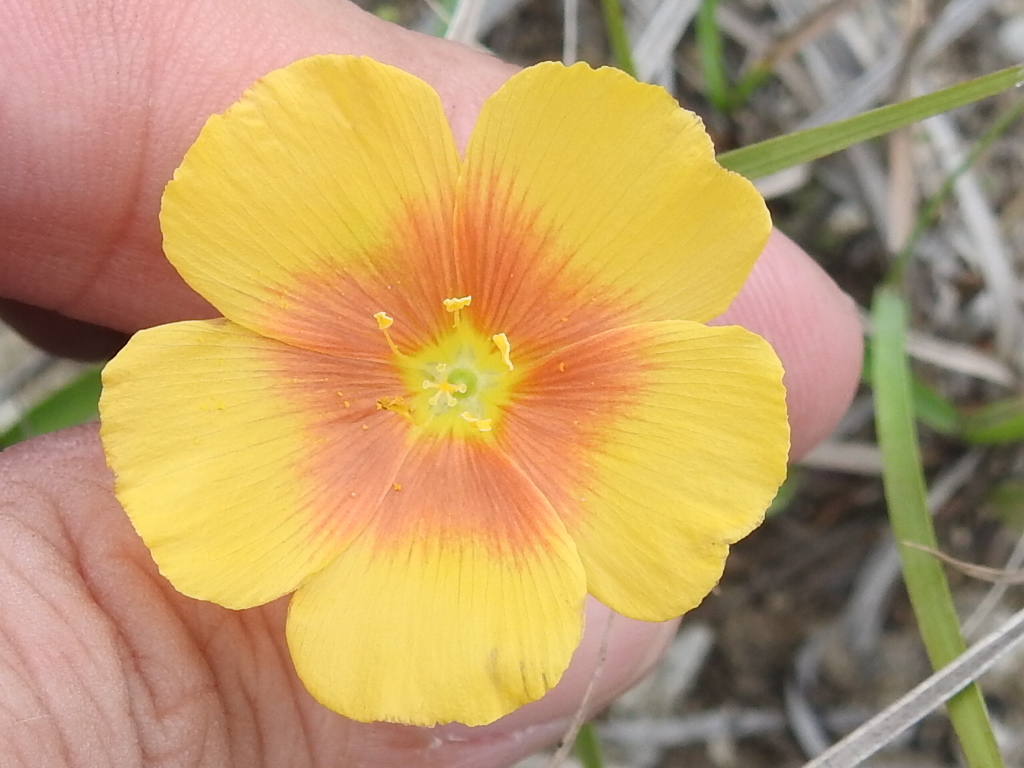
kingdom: Plantae
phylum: Tracheophyta
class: Magnoliopsida
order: Malpighiales
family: Linaceae
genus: Linum
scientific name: Linum berlandieri
